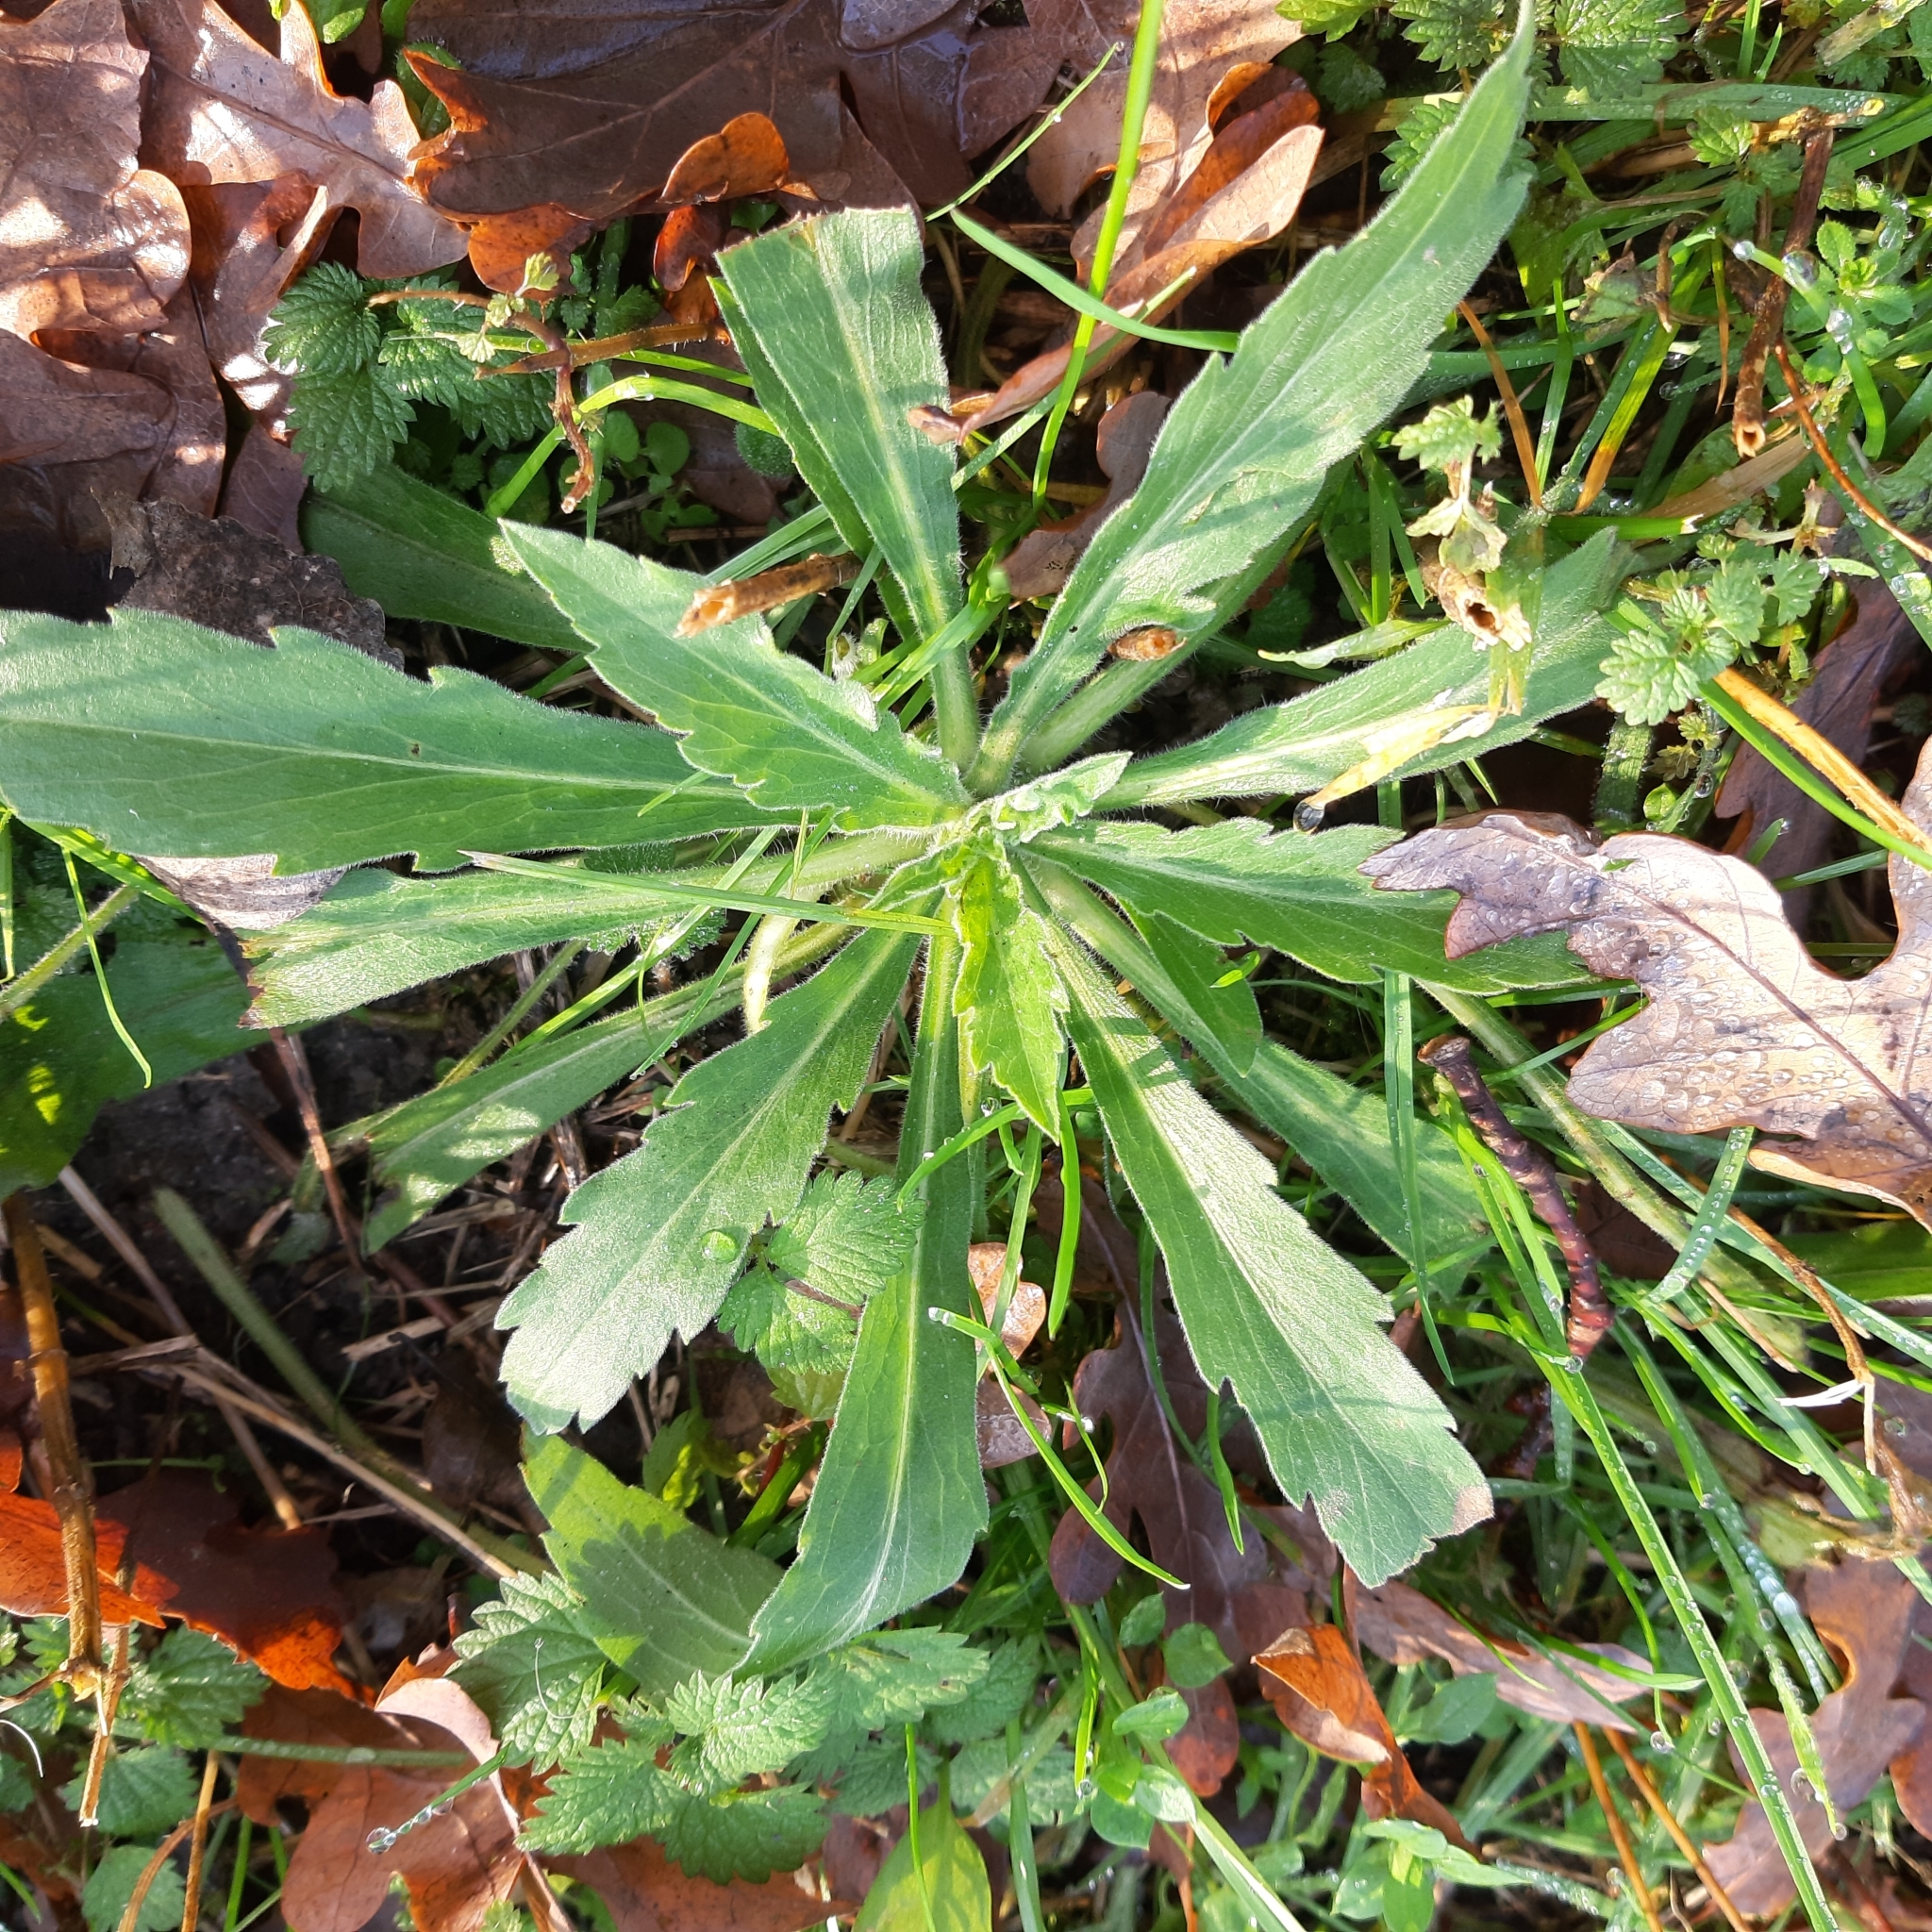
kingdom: Plantae
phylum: Tracheophyta
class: Magnoliopsida
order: Asterales
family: Asteraceae
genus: Erigeron
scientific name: Erigeron sumatrensis
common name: Daisy
